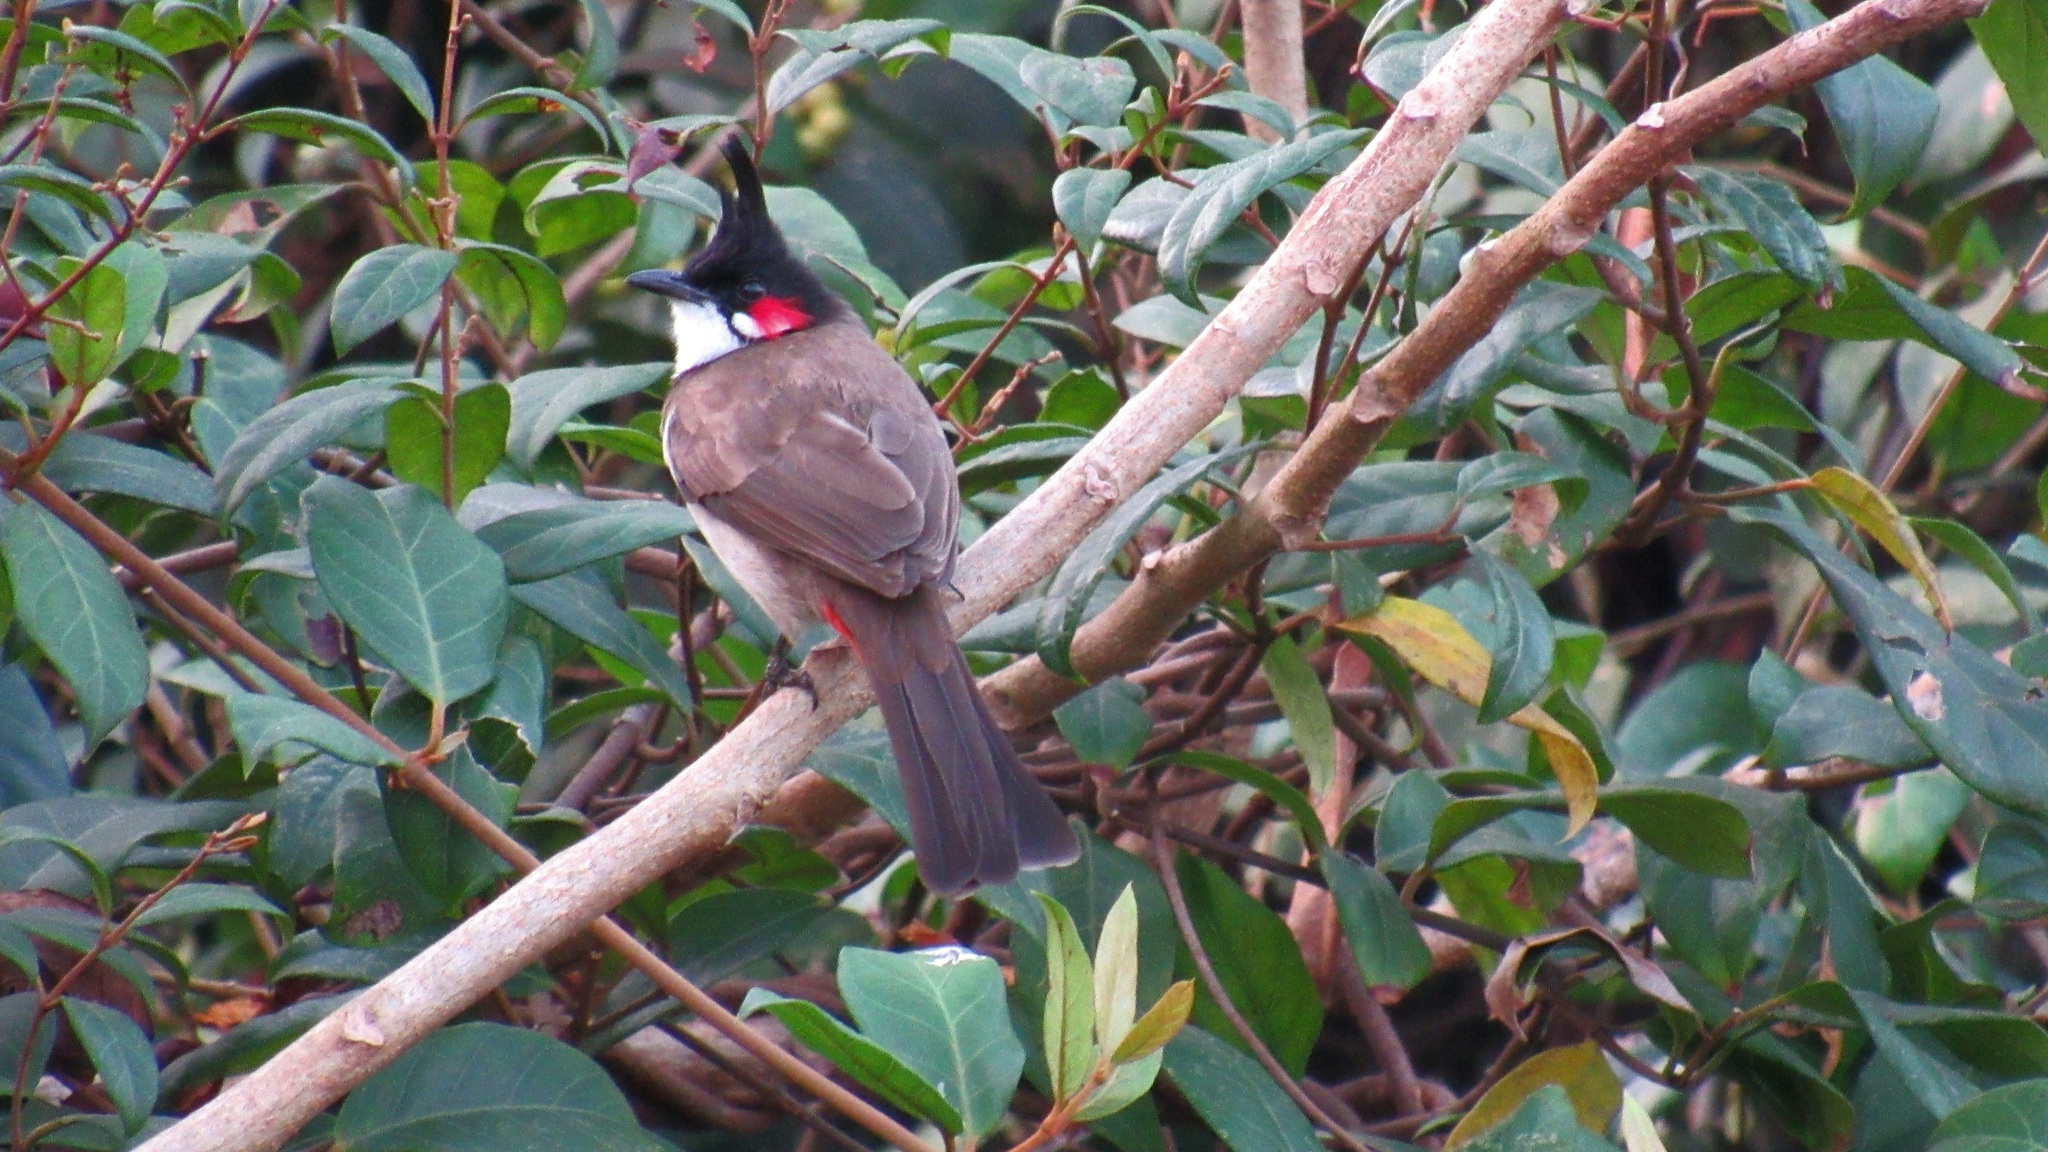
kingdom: Animalia
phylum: Chordata
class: Aves
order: Passeriformes
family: Pycnonotidae
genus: Pycnonotus
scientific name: Pycnonotus jocosus
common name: Red-whiskered bulbul
